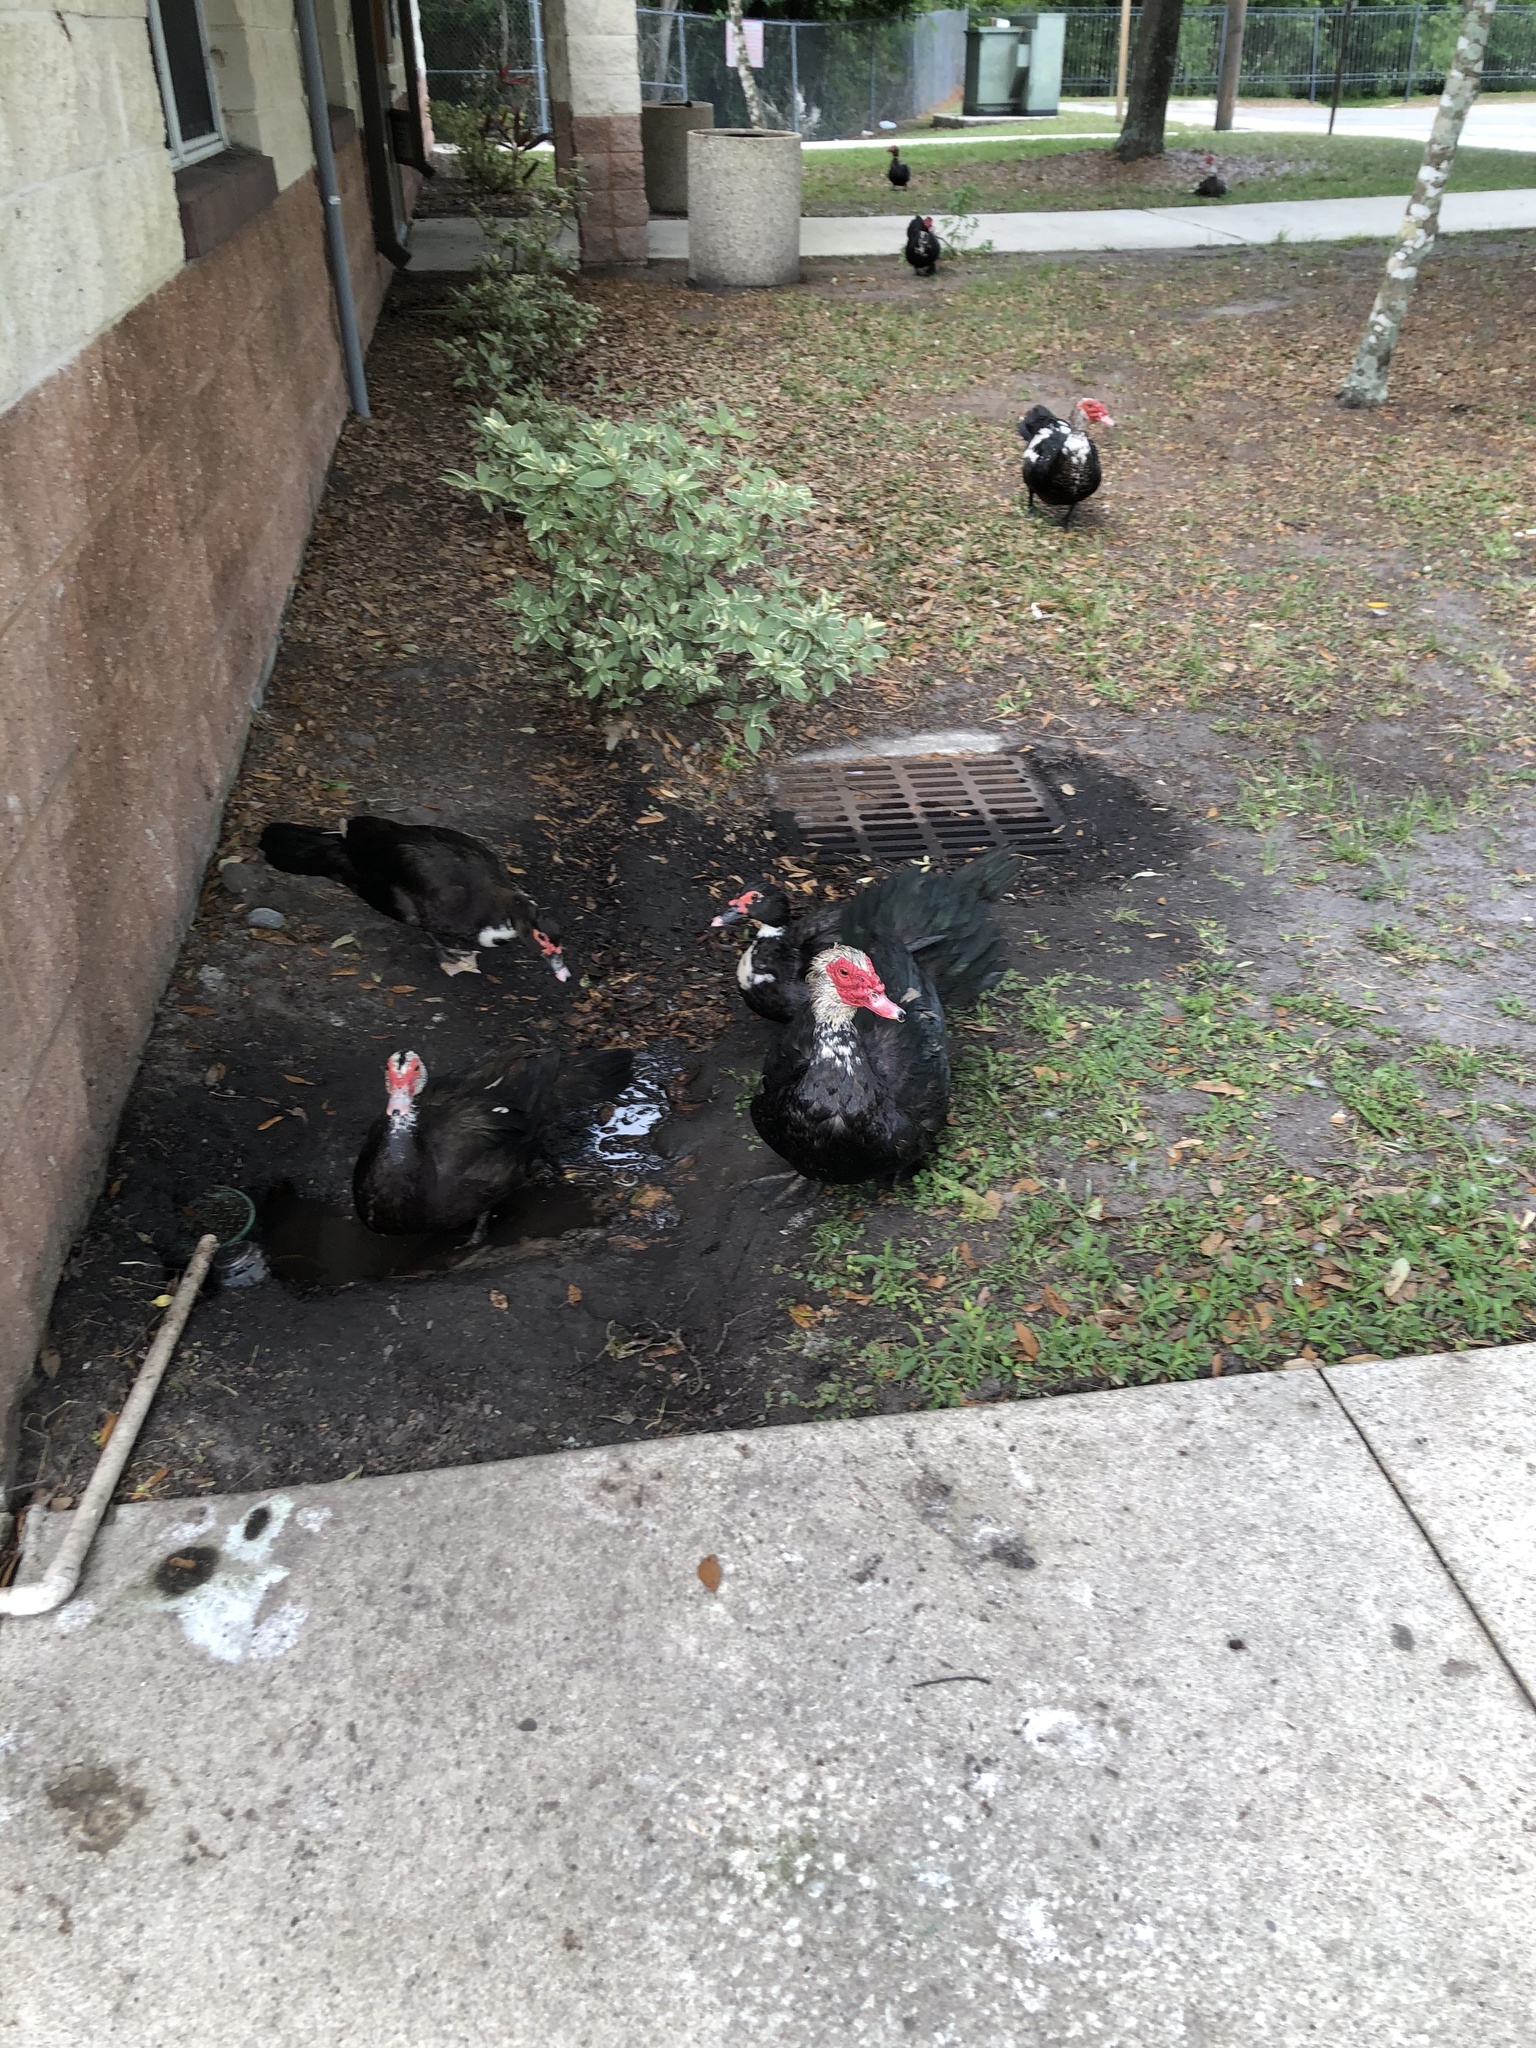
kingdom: Animalia
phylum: Chordata
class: Aves
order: Anseriformes
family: Anatidae
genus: Cairina
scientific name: Cairina moschata
